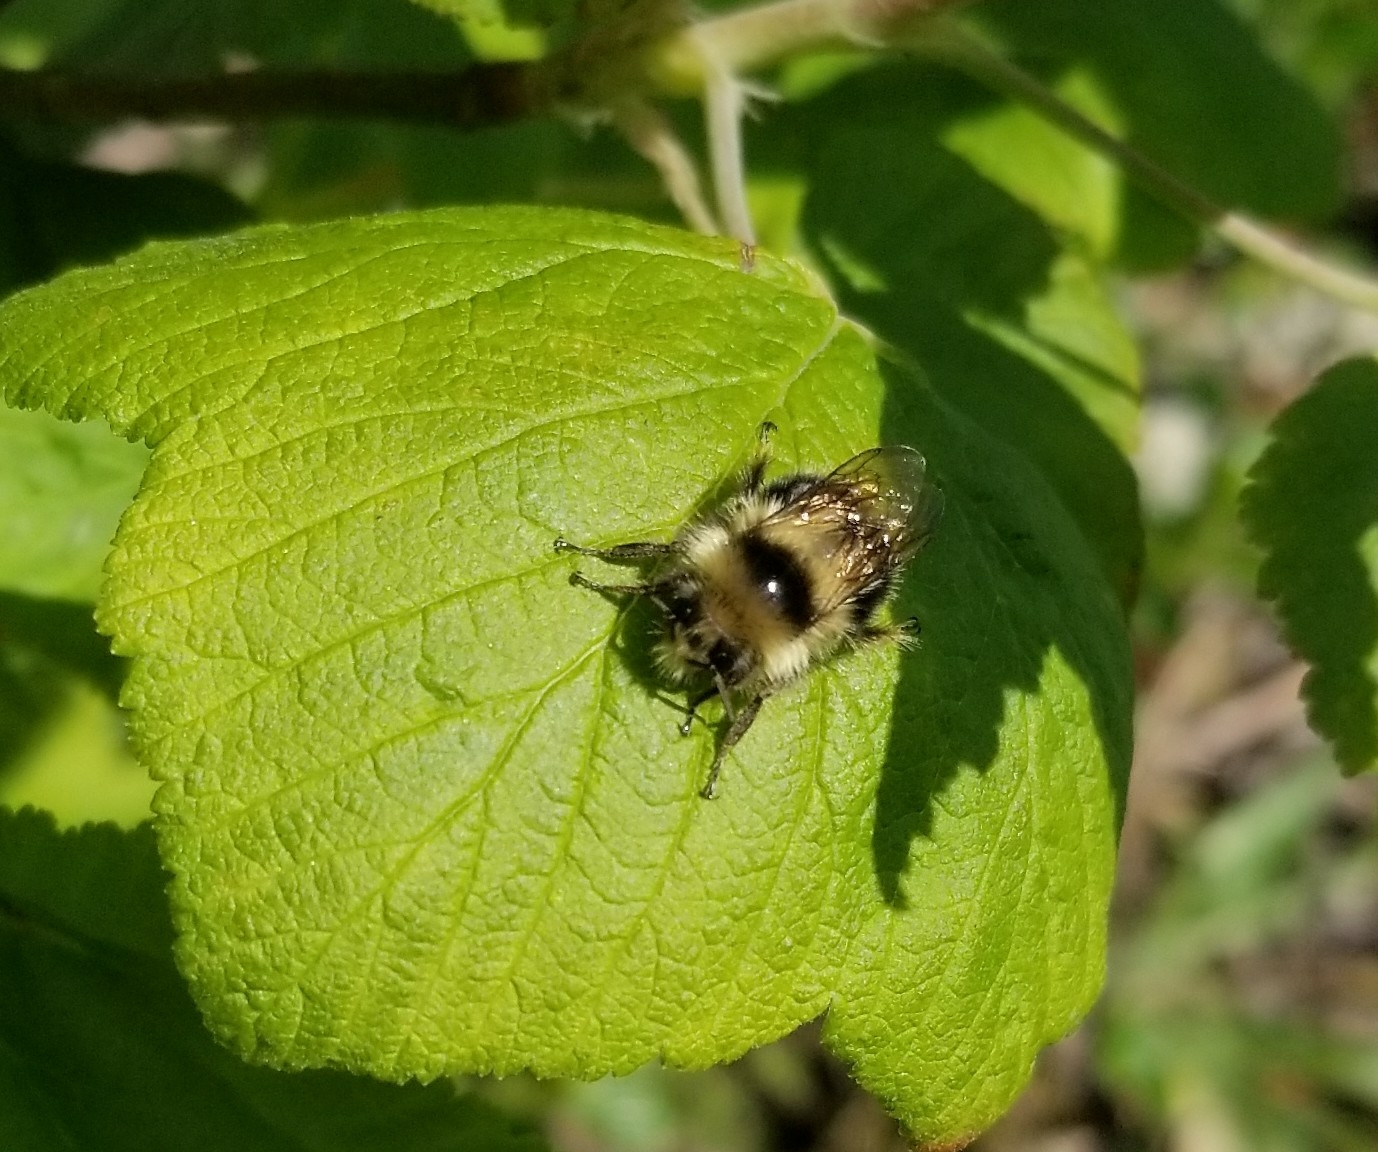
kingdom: Animalia
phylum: Arthropoda
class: Insecta
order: Hymenoptera
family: Apidae
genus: Bombus
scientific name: Bombus melanopygus
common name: Black tail bumble bee
